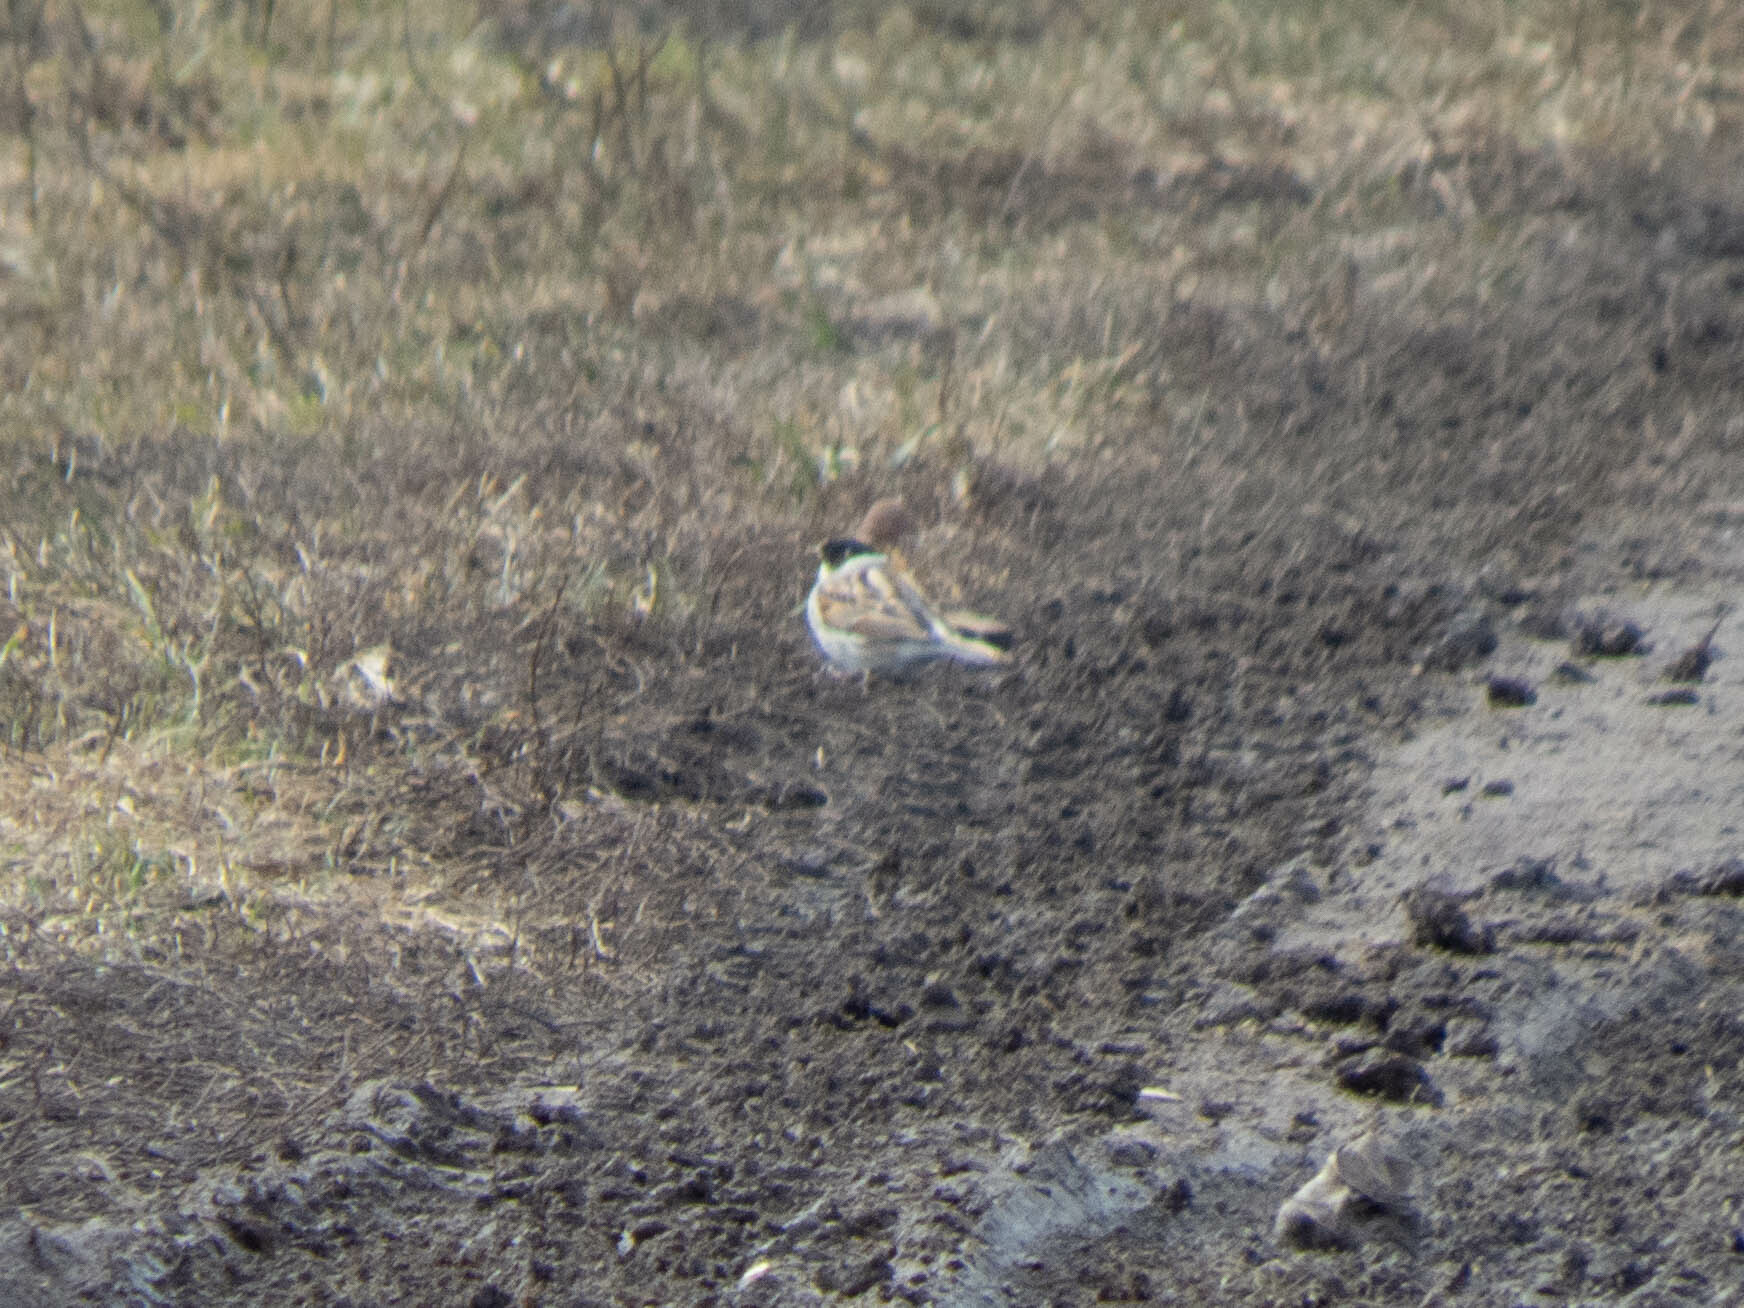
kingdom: Animalia
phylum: Chordata
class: Aves
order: Passeriformes
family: Emberizidae
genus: Emberiza
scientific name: Emberiza schoeniclus
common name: Reed bunting
